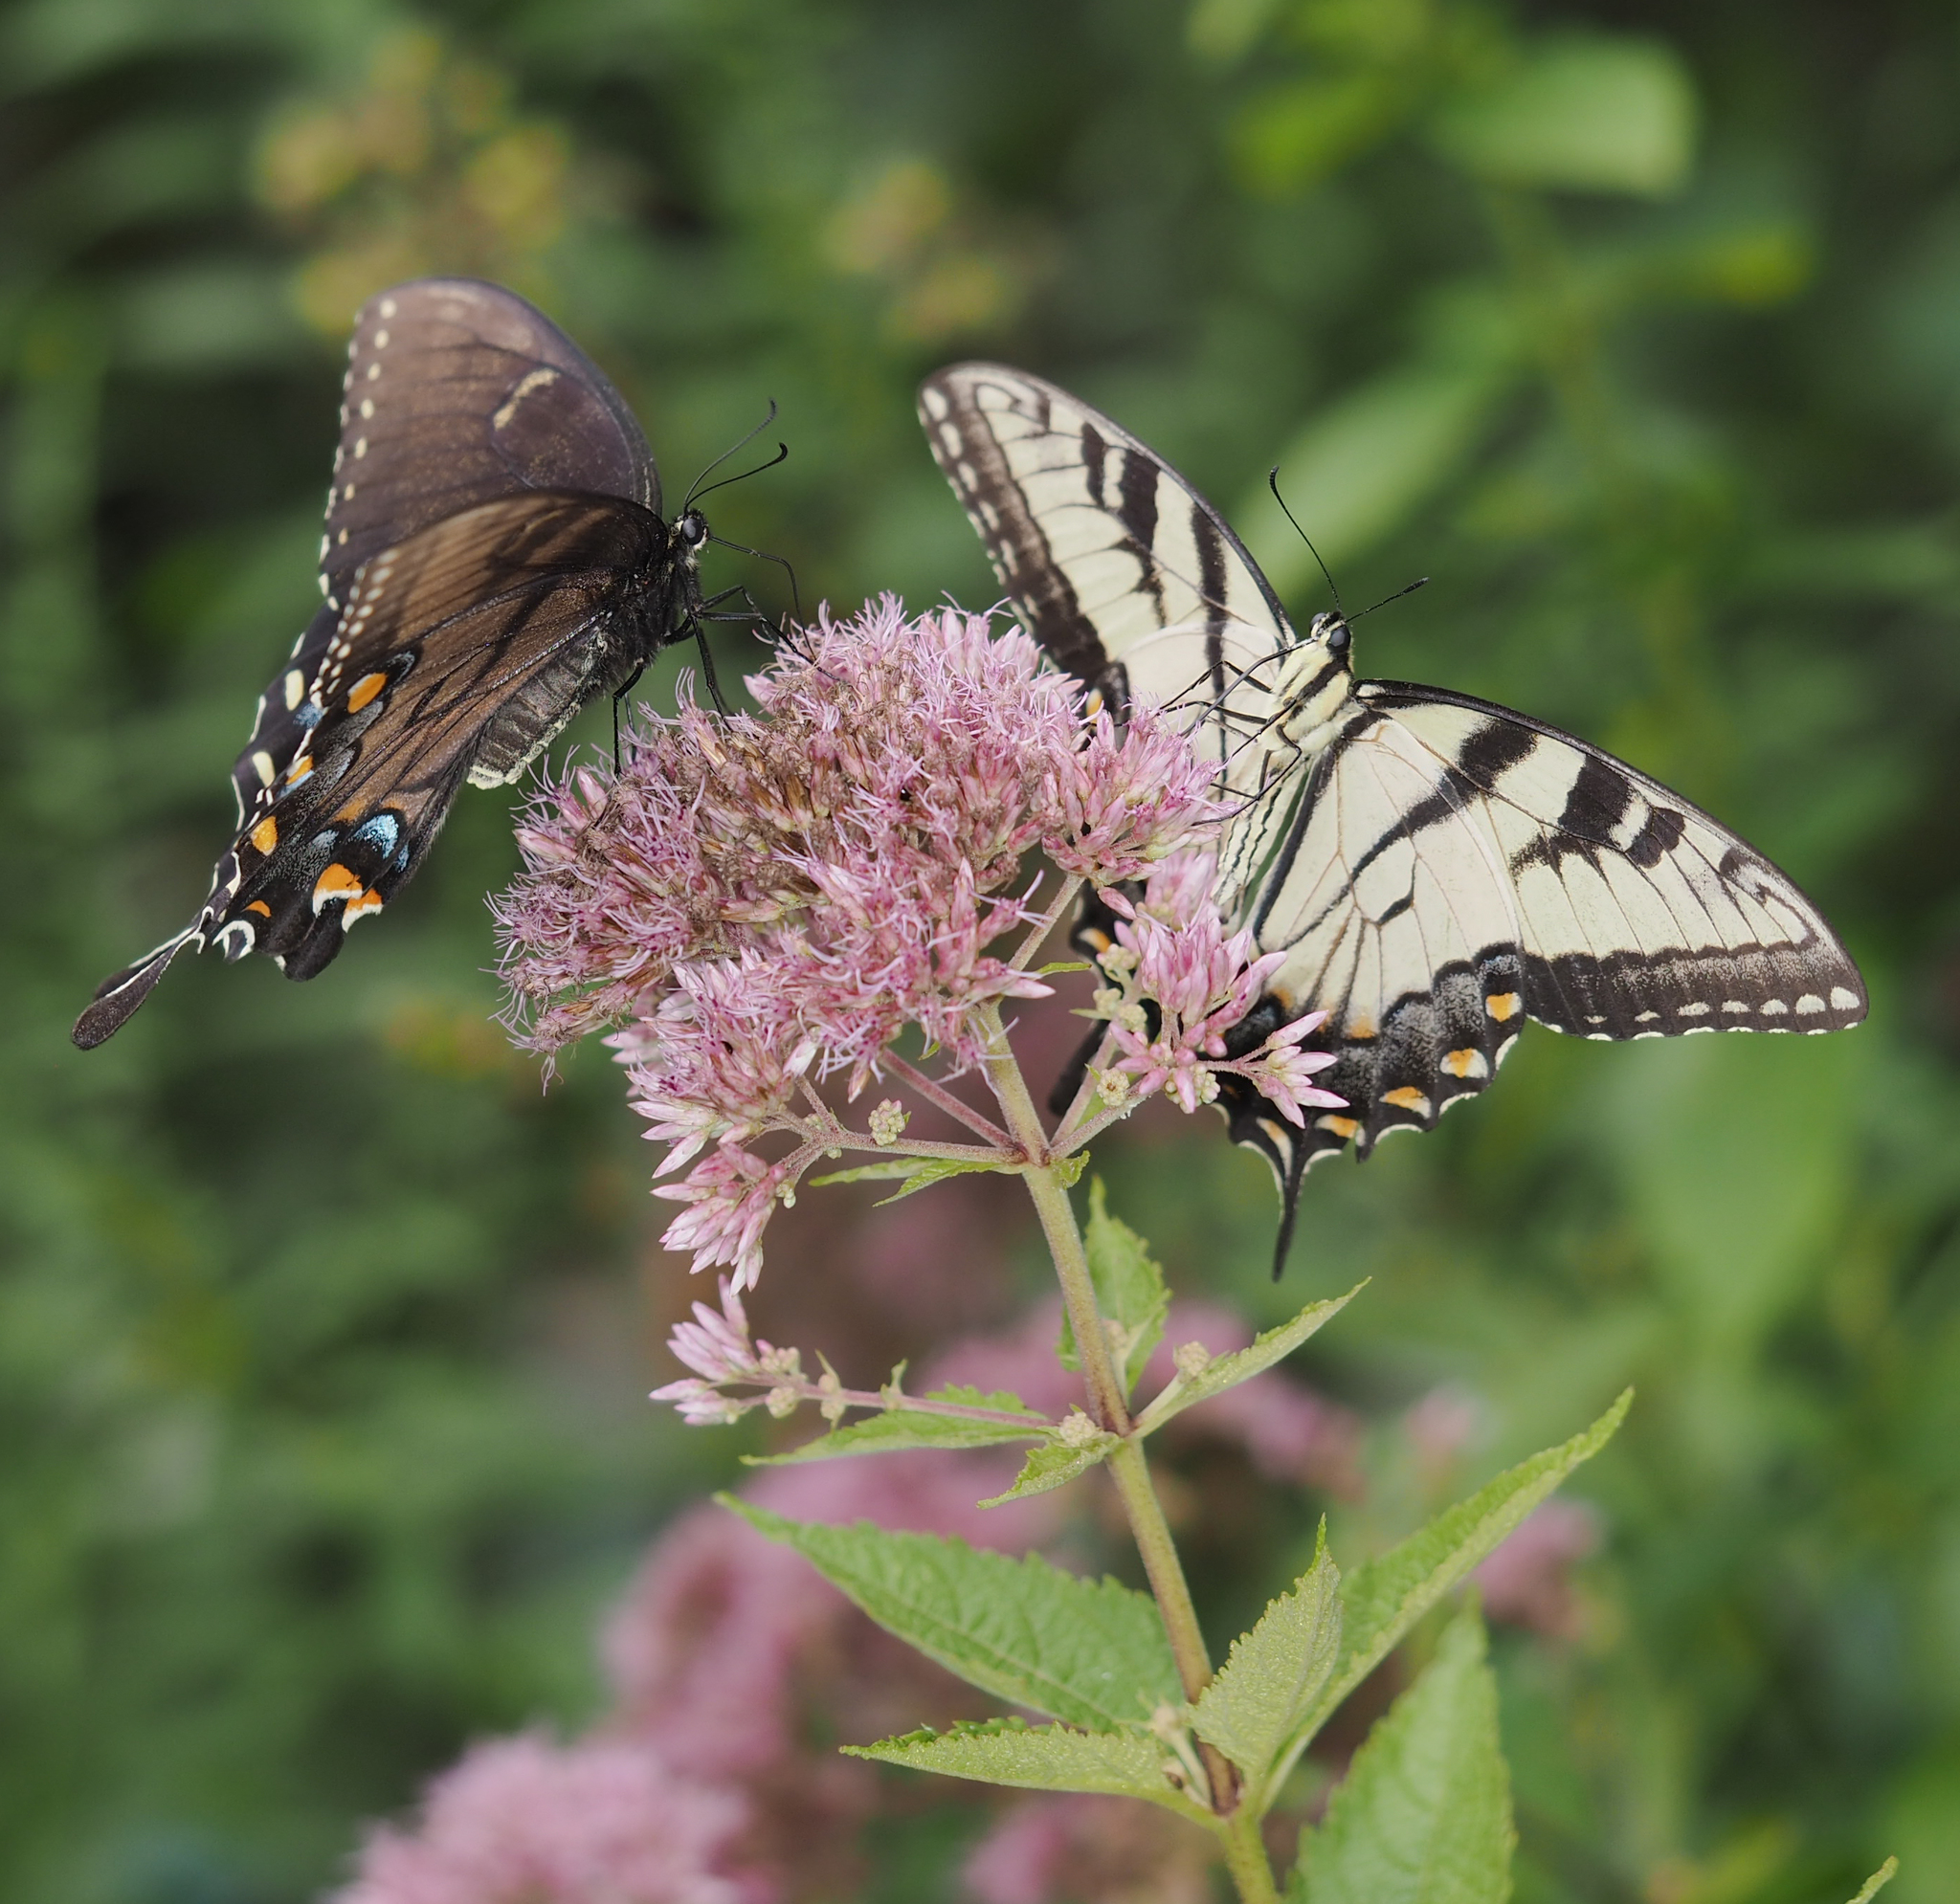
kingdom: Animalia
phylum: Arthropoda
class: Insecta
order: Lepidoptera
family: Papilionidae
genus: Papilio
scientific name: Papilio glaucus
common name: Tiger swallowtail
